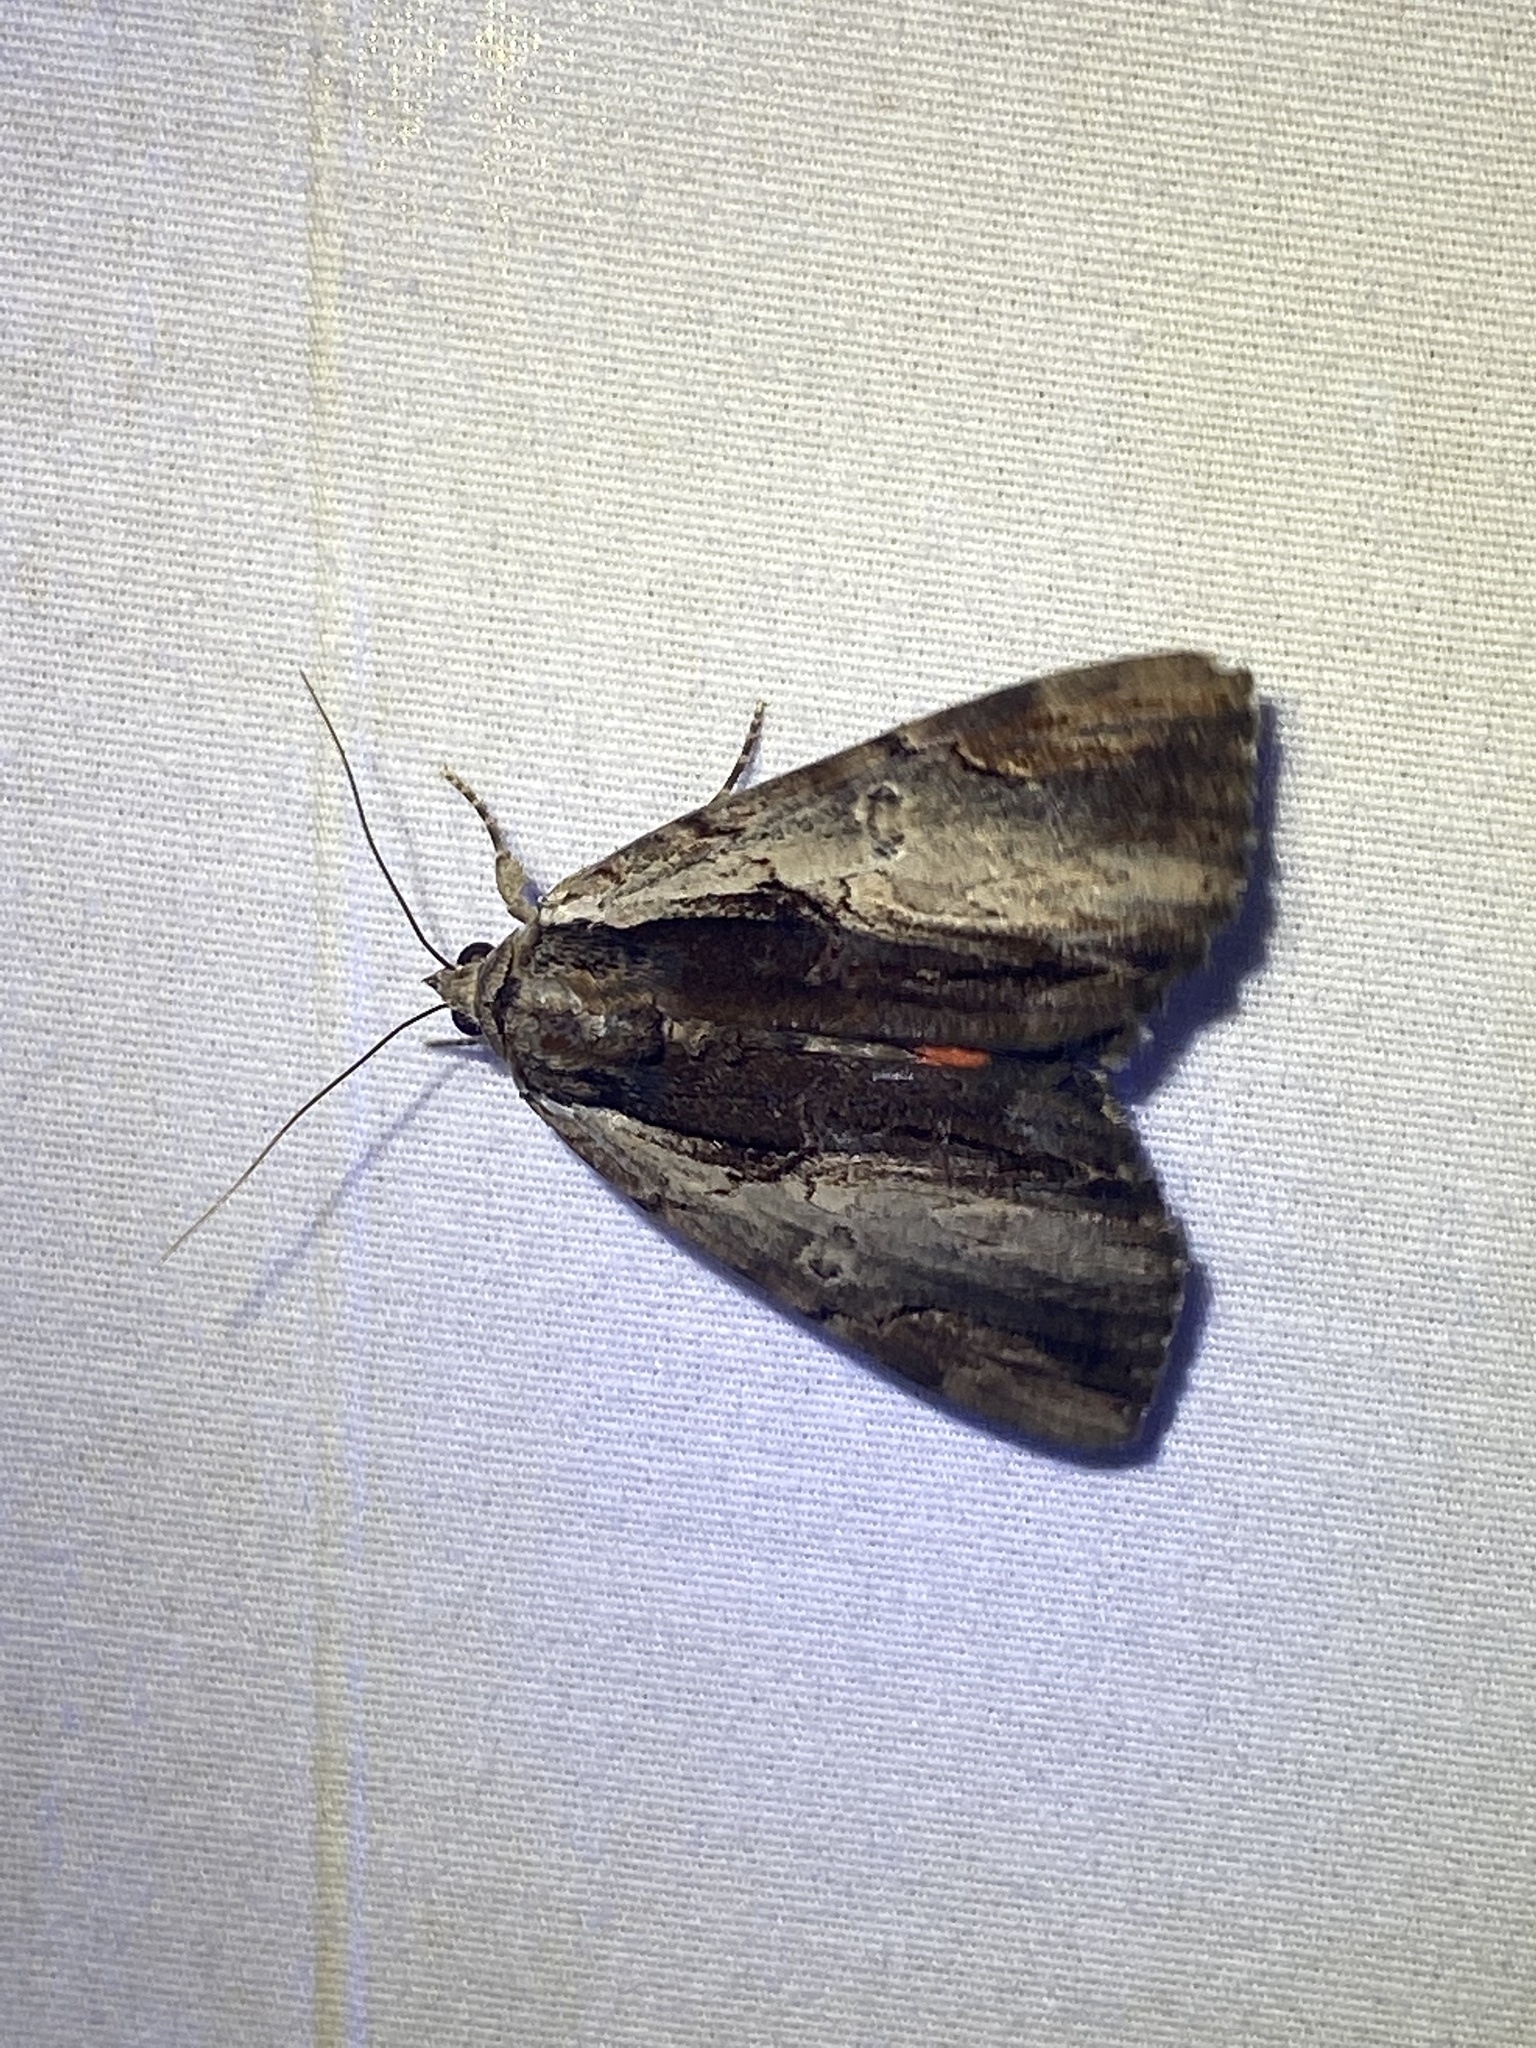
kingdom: Animalia
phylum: Arthropoda
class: Insecta
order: Lepidoptera
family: Erebidae
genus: Catocala
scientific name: Catocala ultronia
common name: Ultronia underwing
